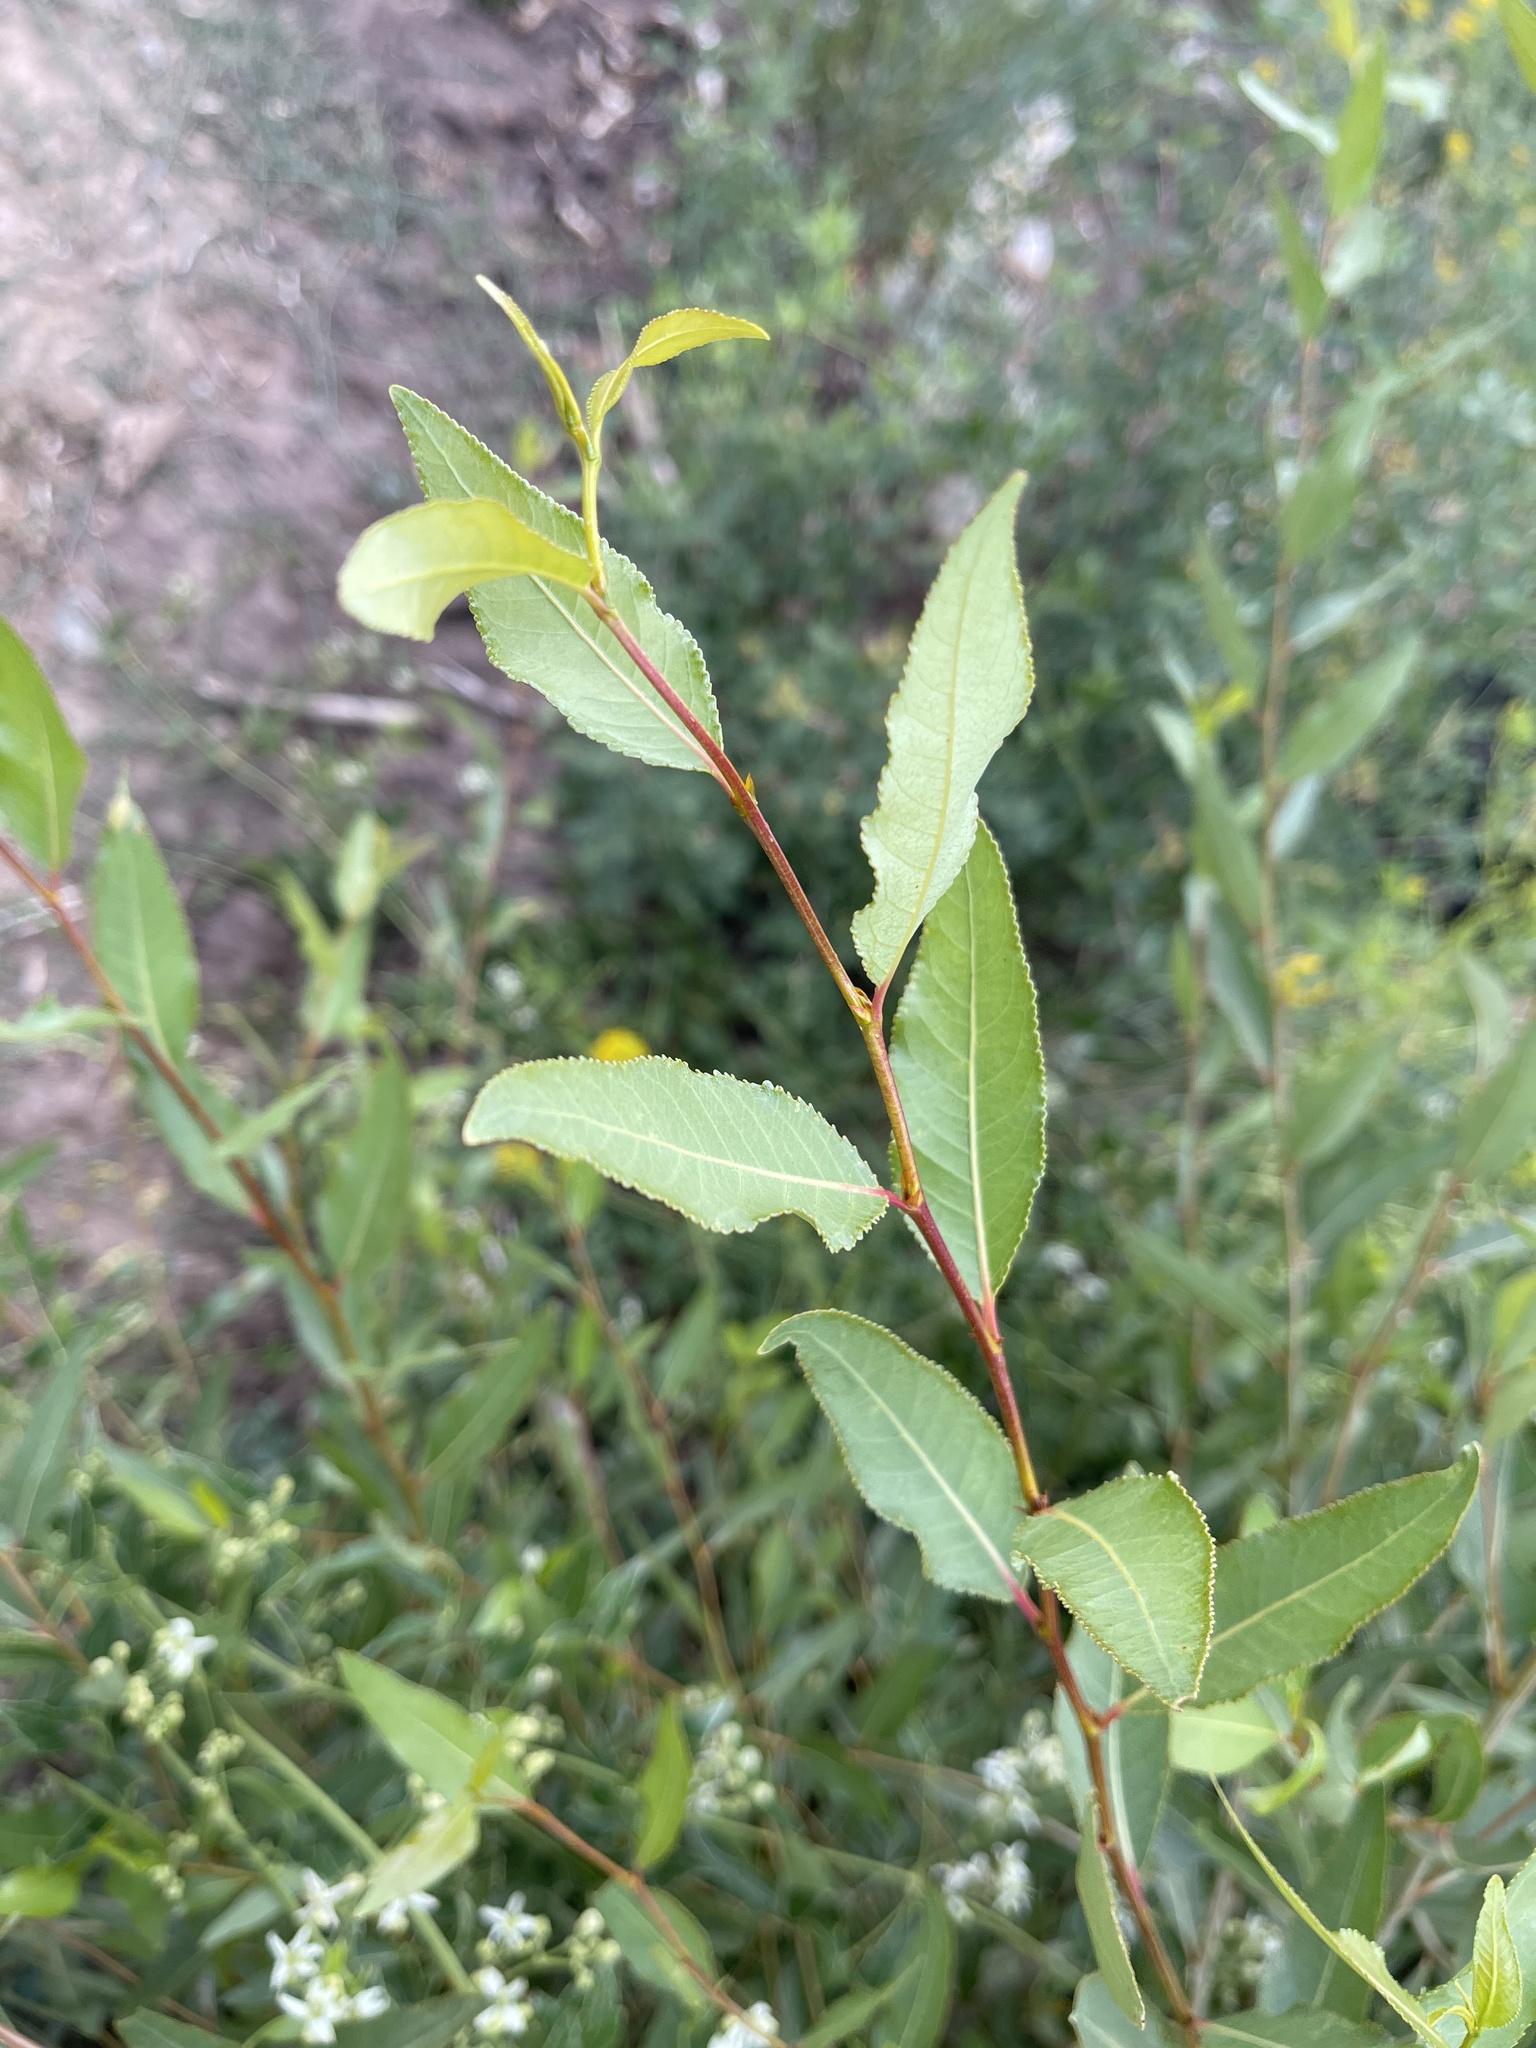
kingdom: Plantae
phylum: Tracheophyta
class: Magnoliopsida
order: Malpighiales
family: Salicaceae
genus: Populus
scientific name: Populus angustifolia
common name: Willow cottonwood
